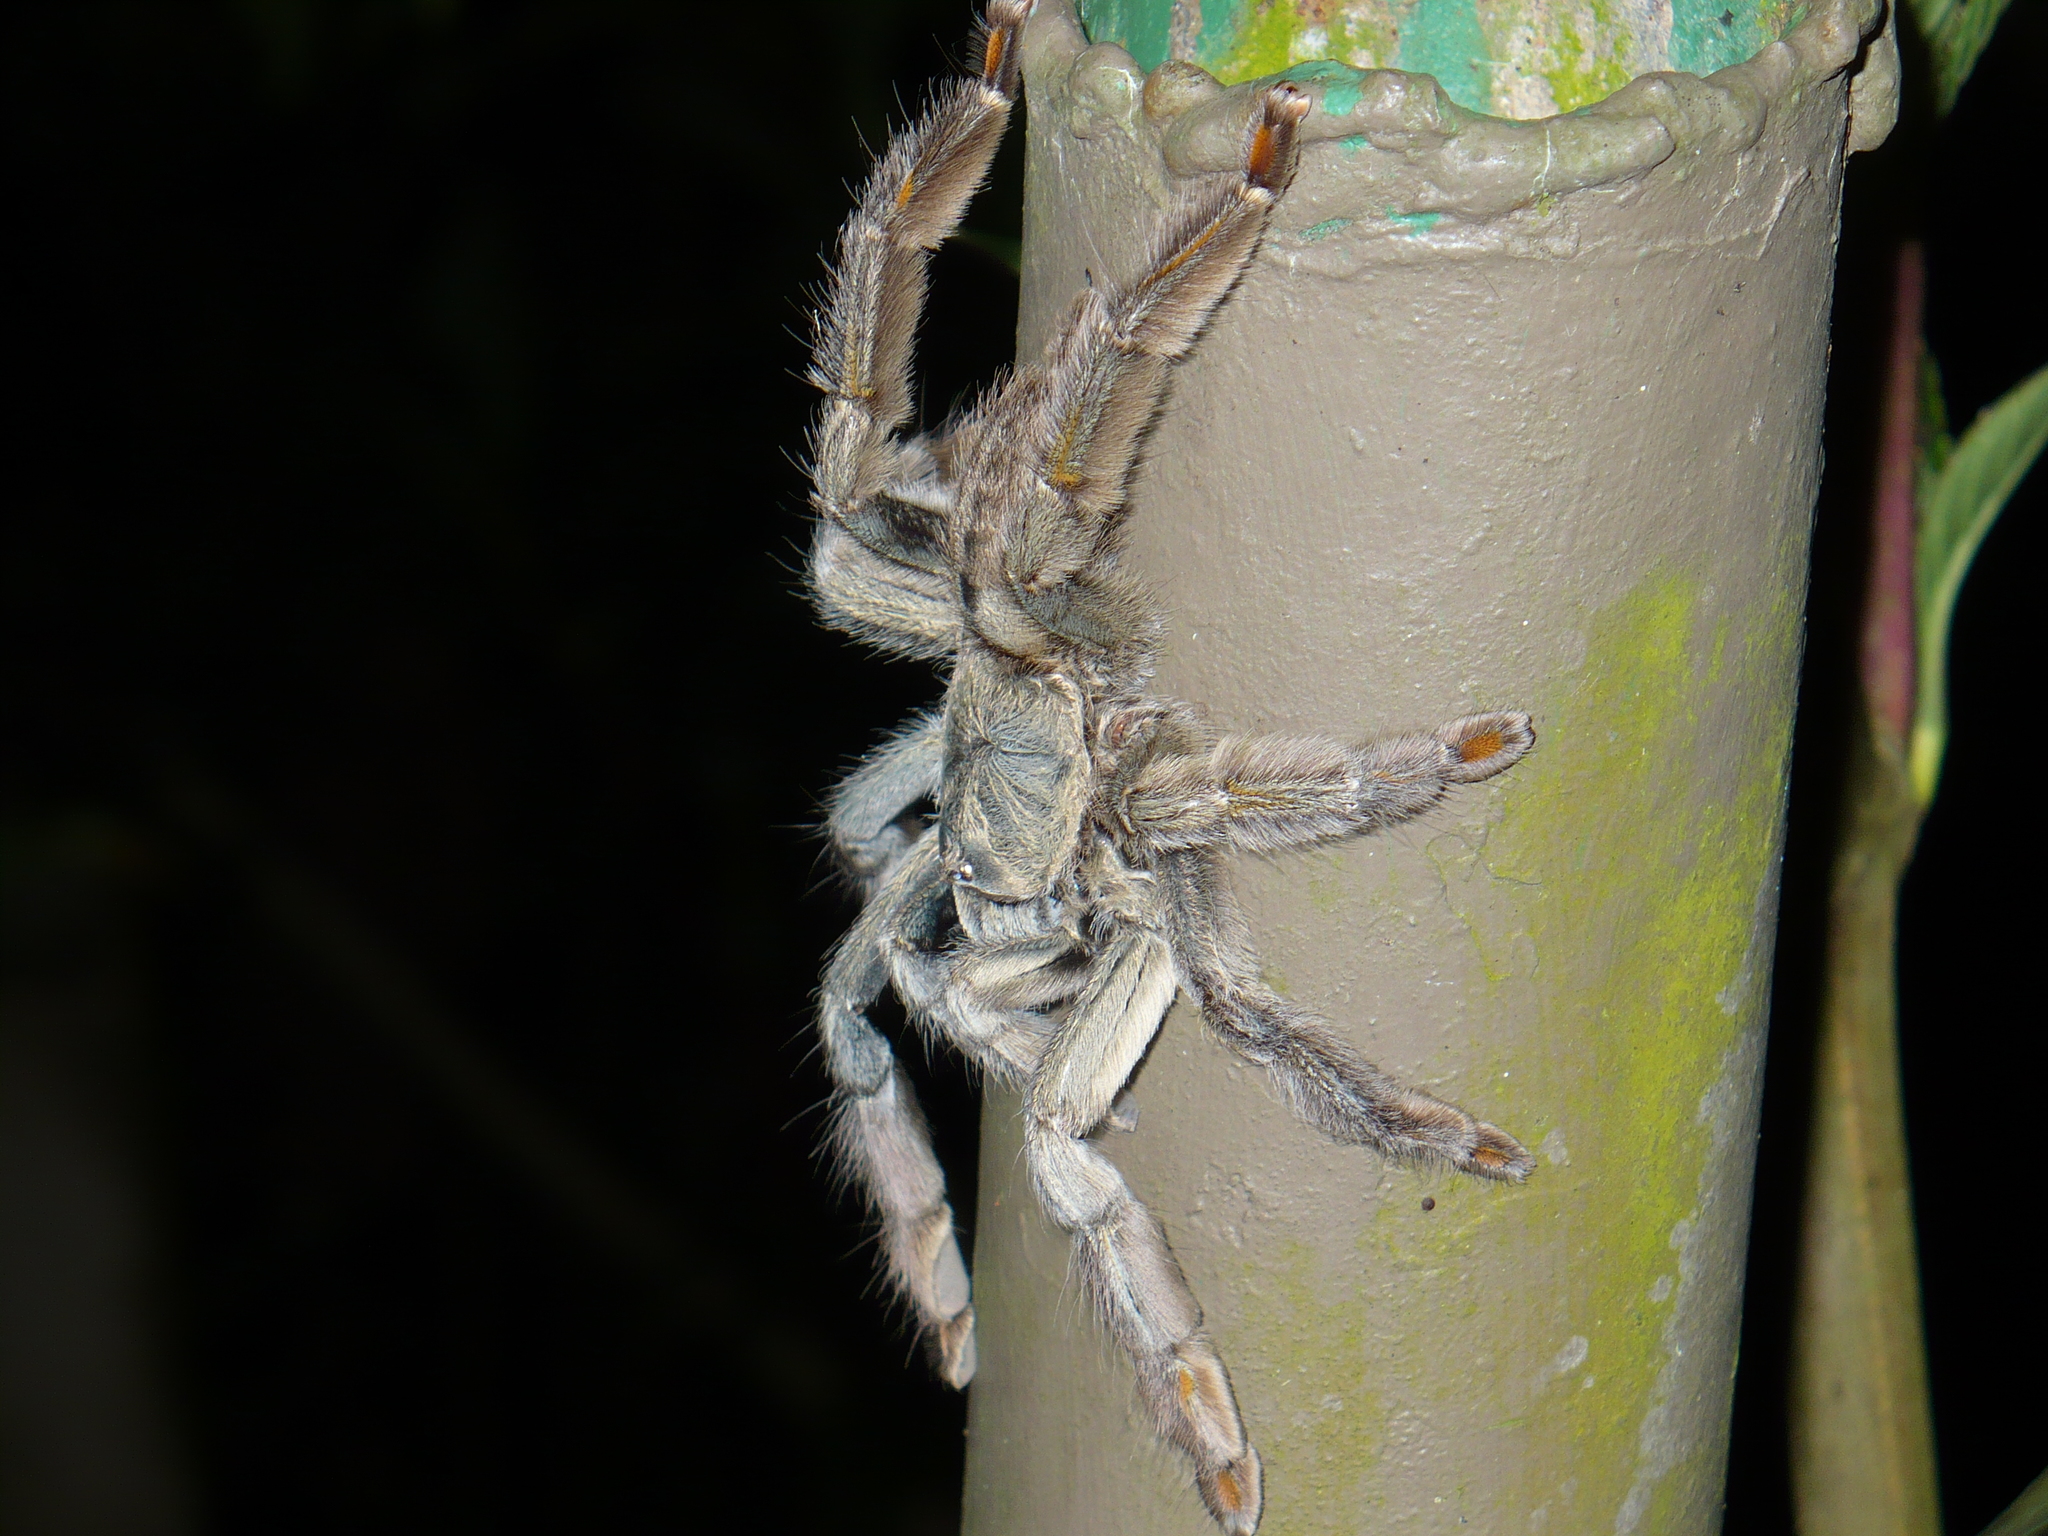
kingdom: Animalia
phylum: Arthropoda
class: Arachnida
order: Araneae
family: Theraphosidae
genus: Psalmopoeus
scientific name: Psalmopoeus cambridgei
